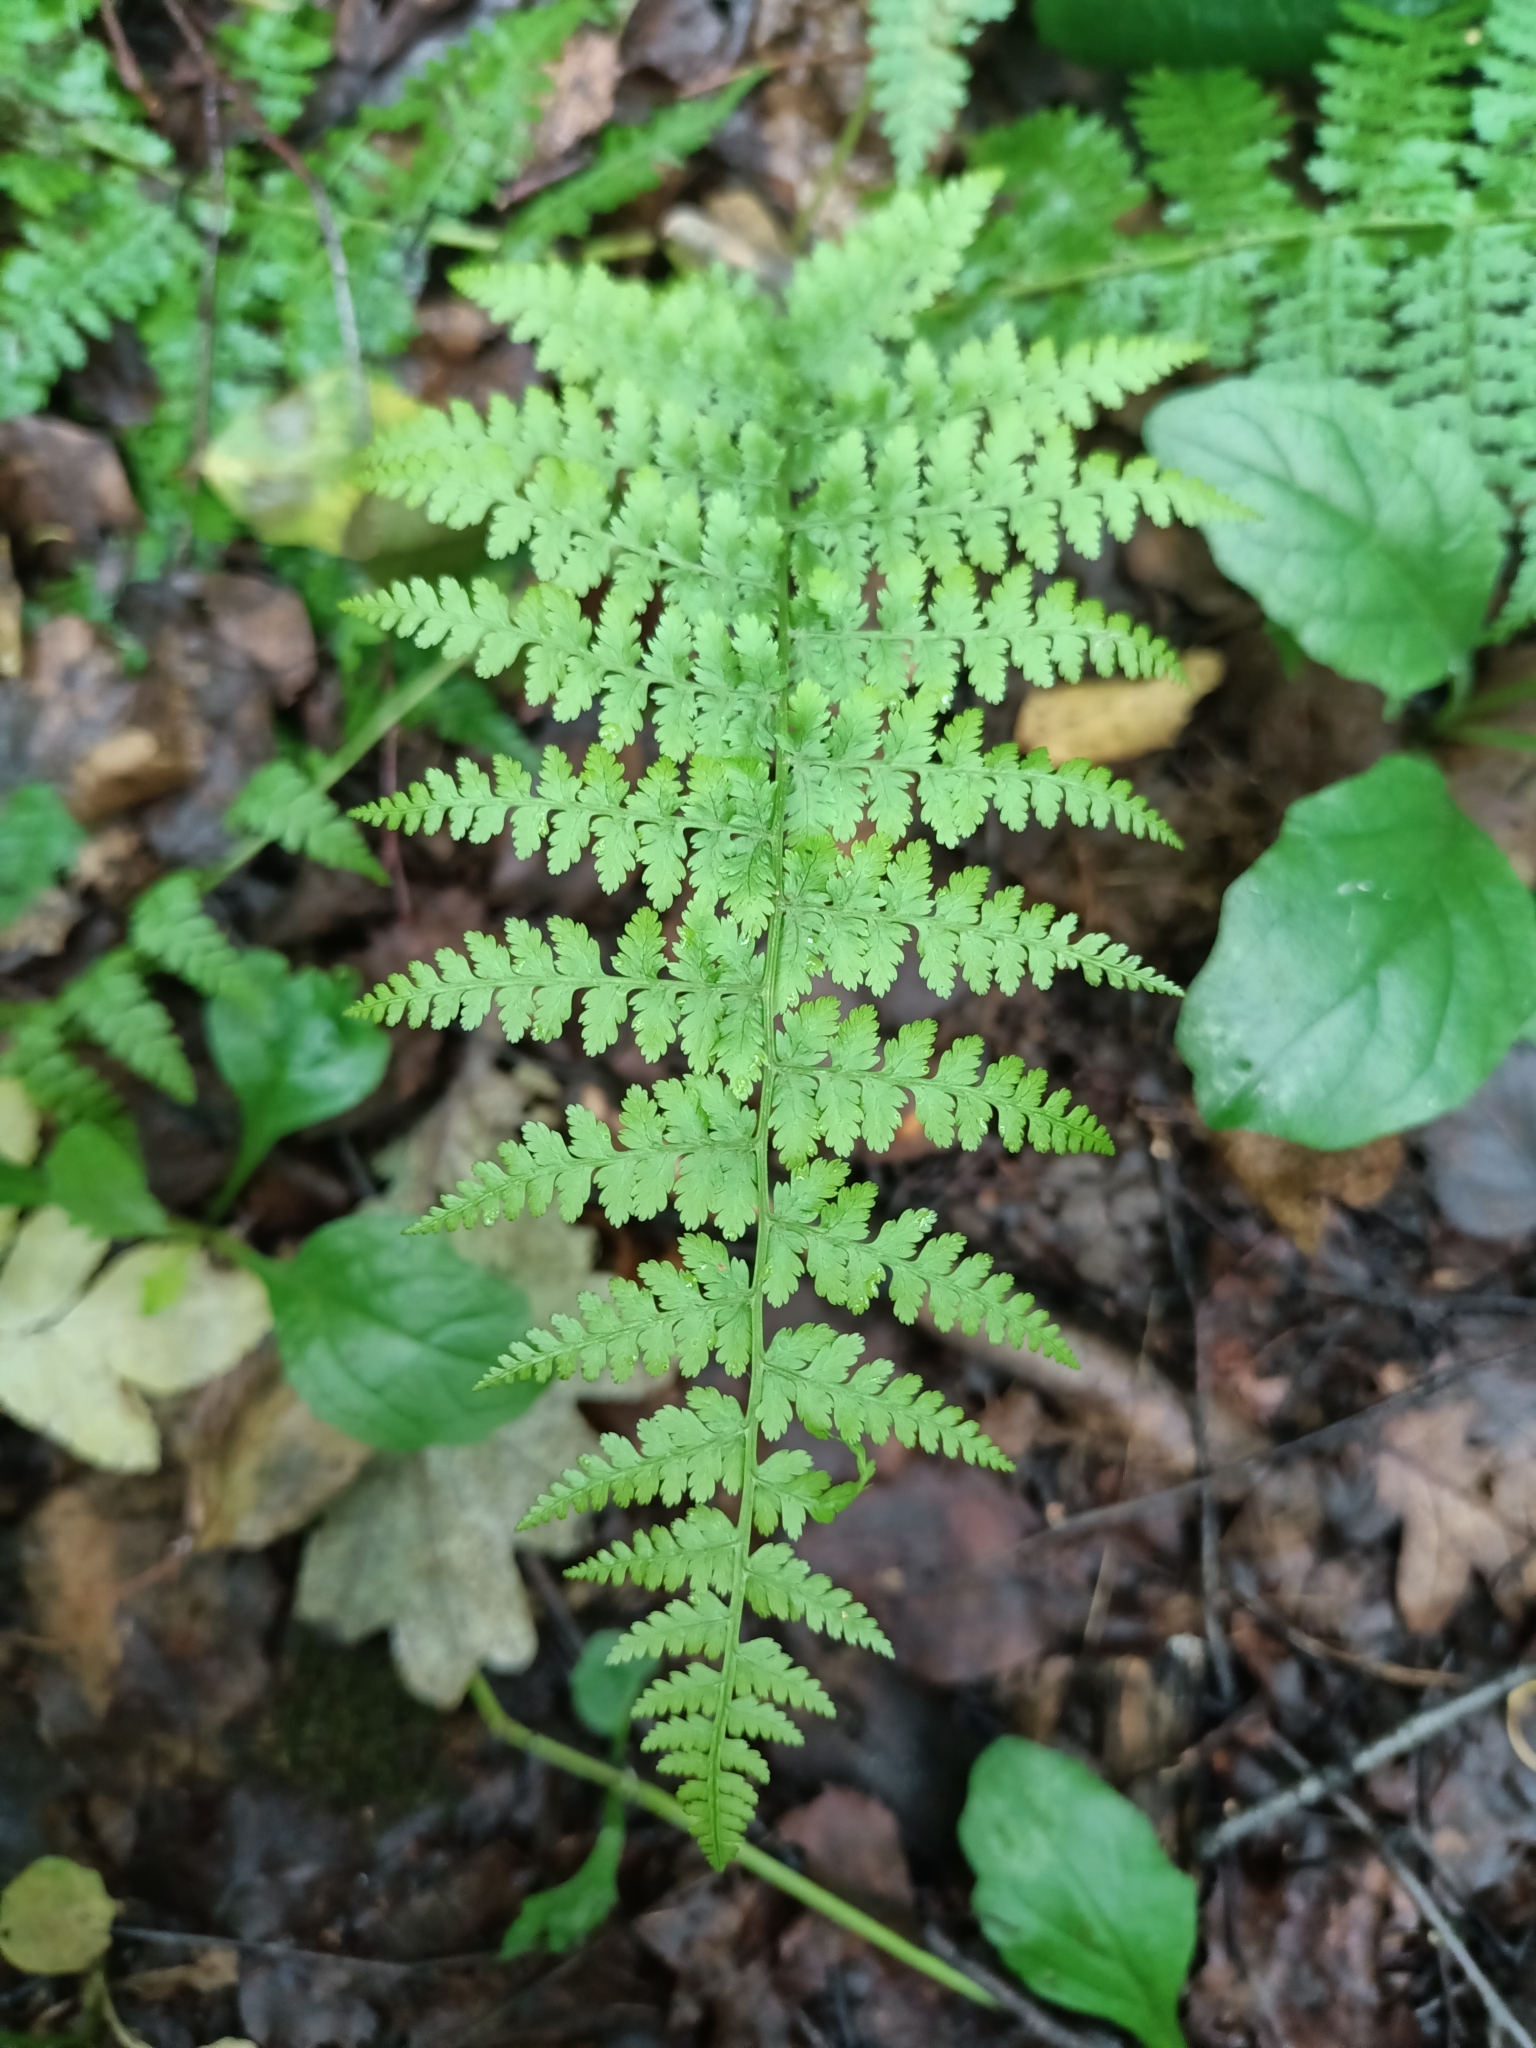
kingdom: Plantae
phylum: Tracheophyta
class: Polypodiopsida
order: Polypodiales
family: Athyriaceae
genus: Athyrium
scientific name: Athyrium filix-femina
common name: Lady fern
